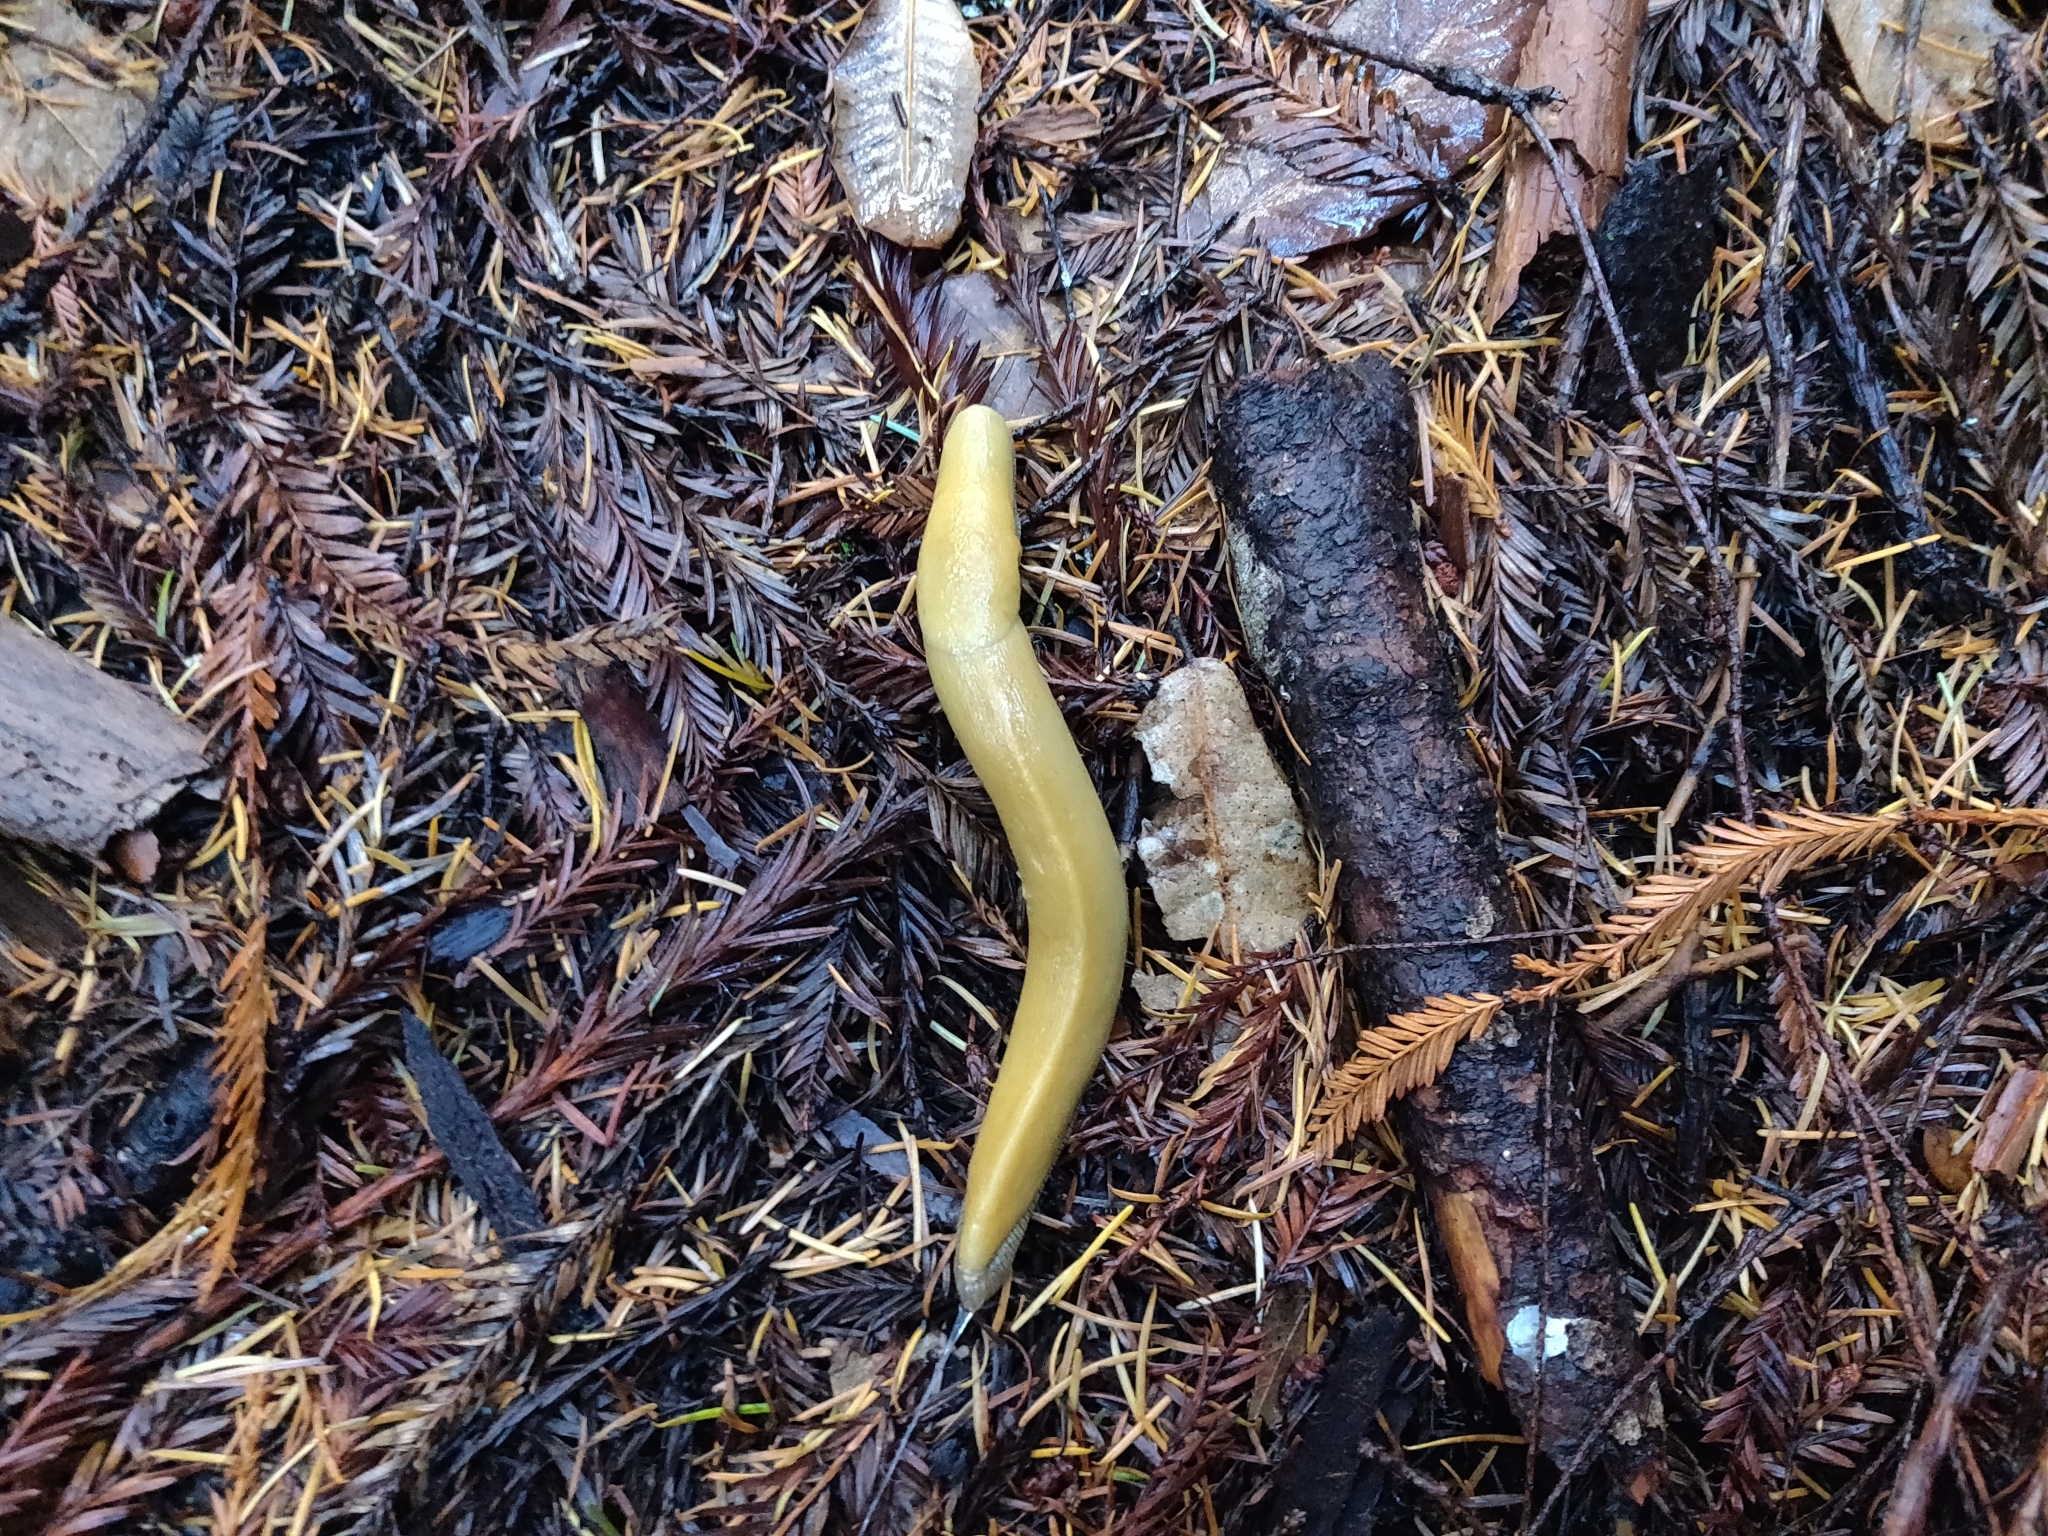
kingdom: Animalia
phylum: Mollusca
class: Gastropoda
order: Stylommatophora
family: Ariolimacidae
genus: Ariolimax
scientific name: Ariolimax californicus
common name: California banana slug
